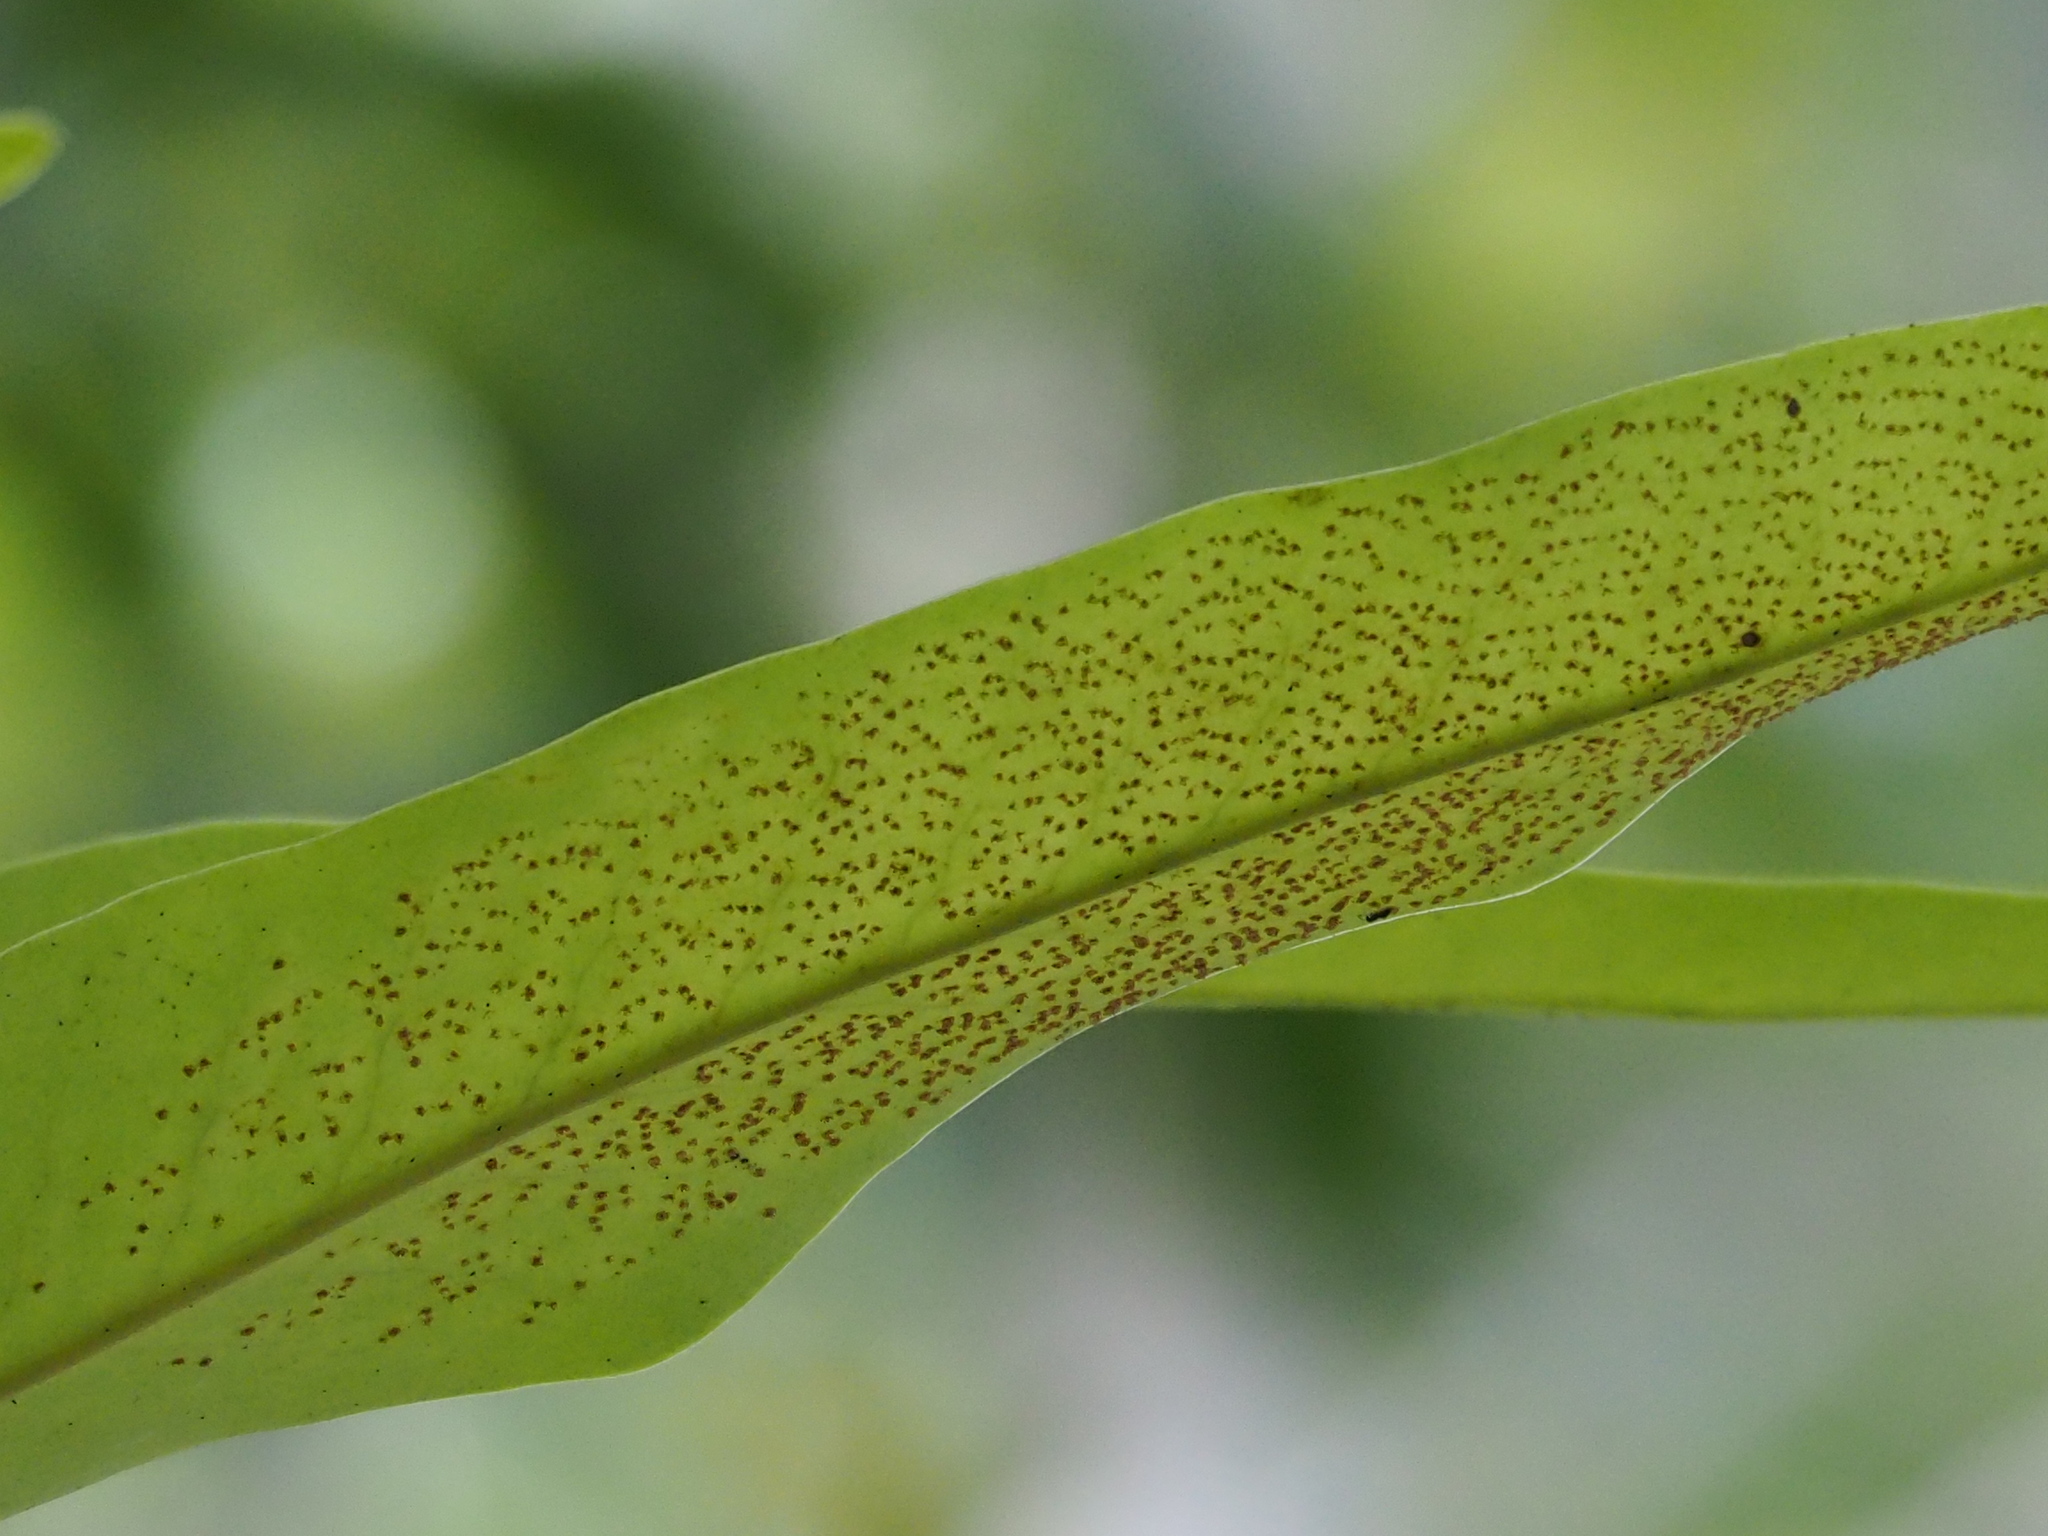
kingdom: Plantae
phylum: Tracheophyta
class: Polypodiopsida
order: Polypodiales
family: Polypodiaceae
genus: Microsorum
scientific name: Microsorum punctatum
